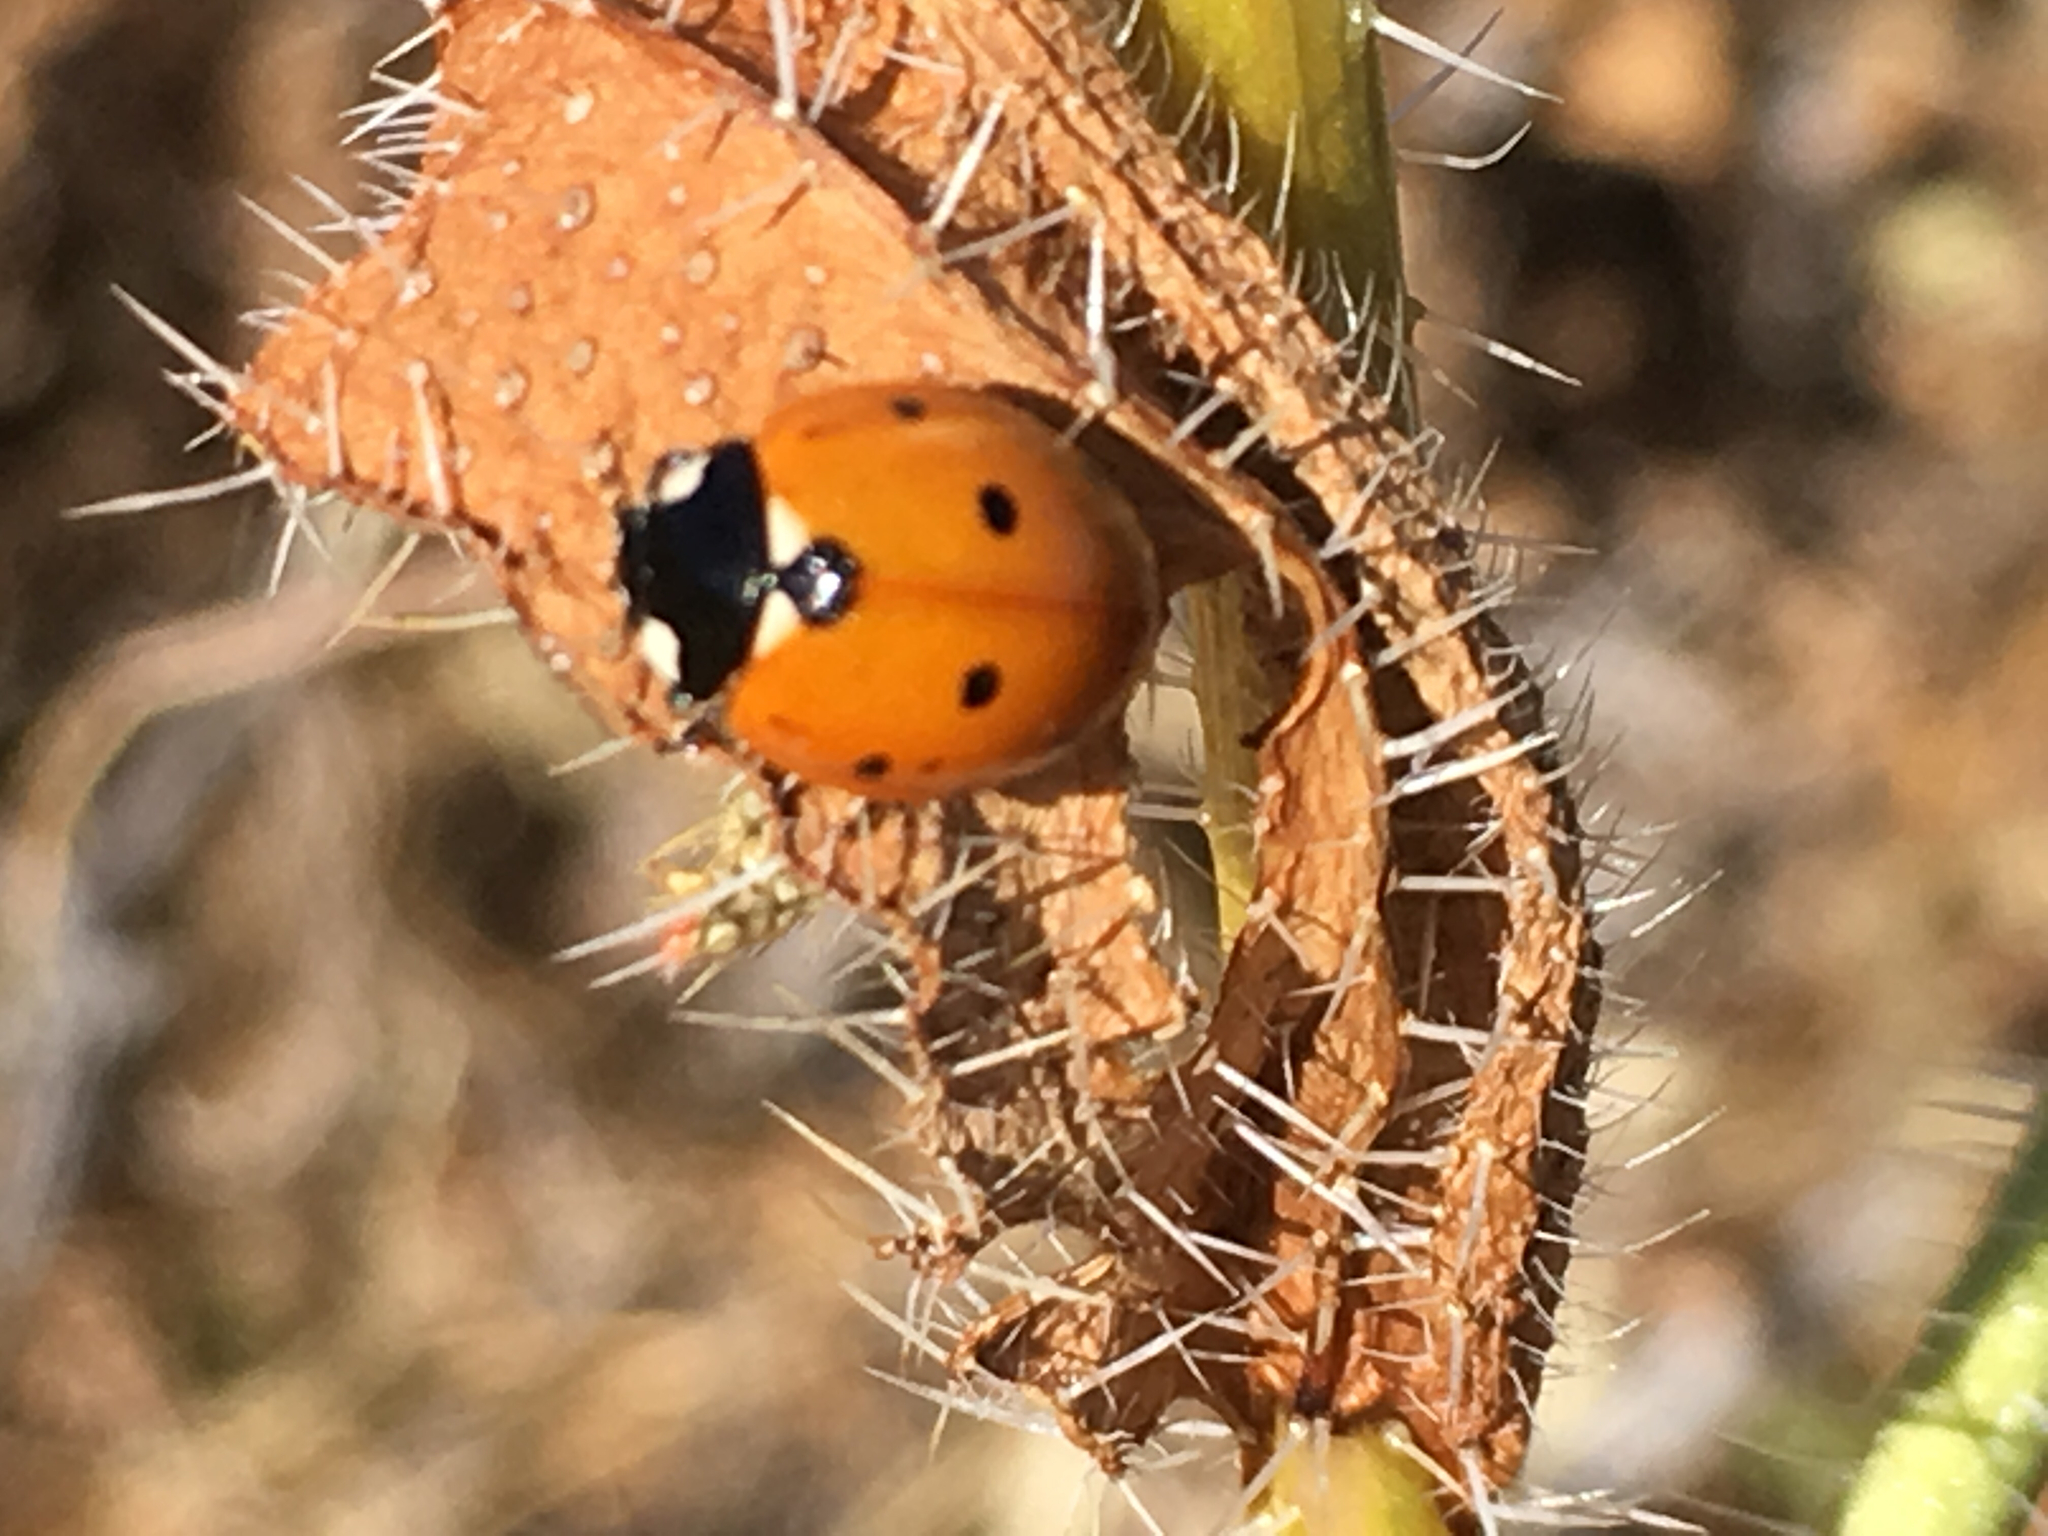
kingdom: Animalia
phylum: Arthropoda
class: Insecta
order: Coleoptera
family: Coccinellidae
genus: Coccinella
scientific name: Coccinella septempunctata
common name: Sevenspotted lady beetle
